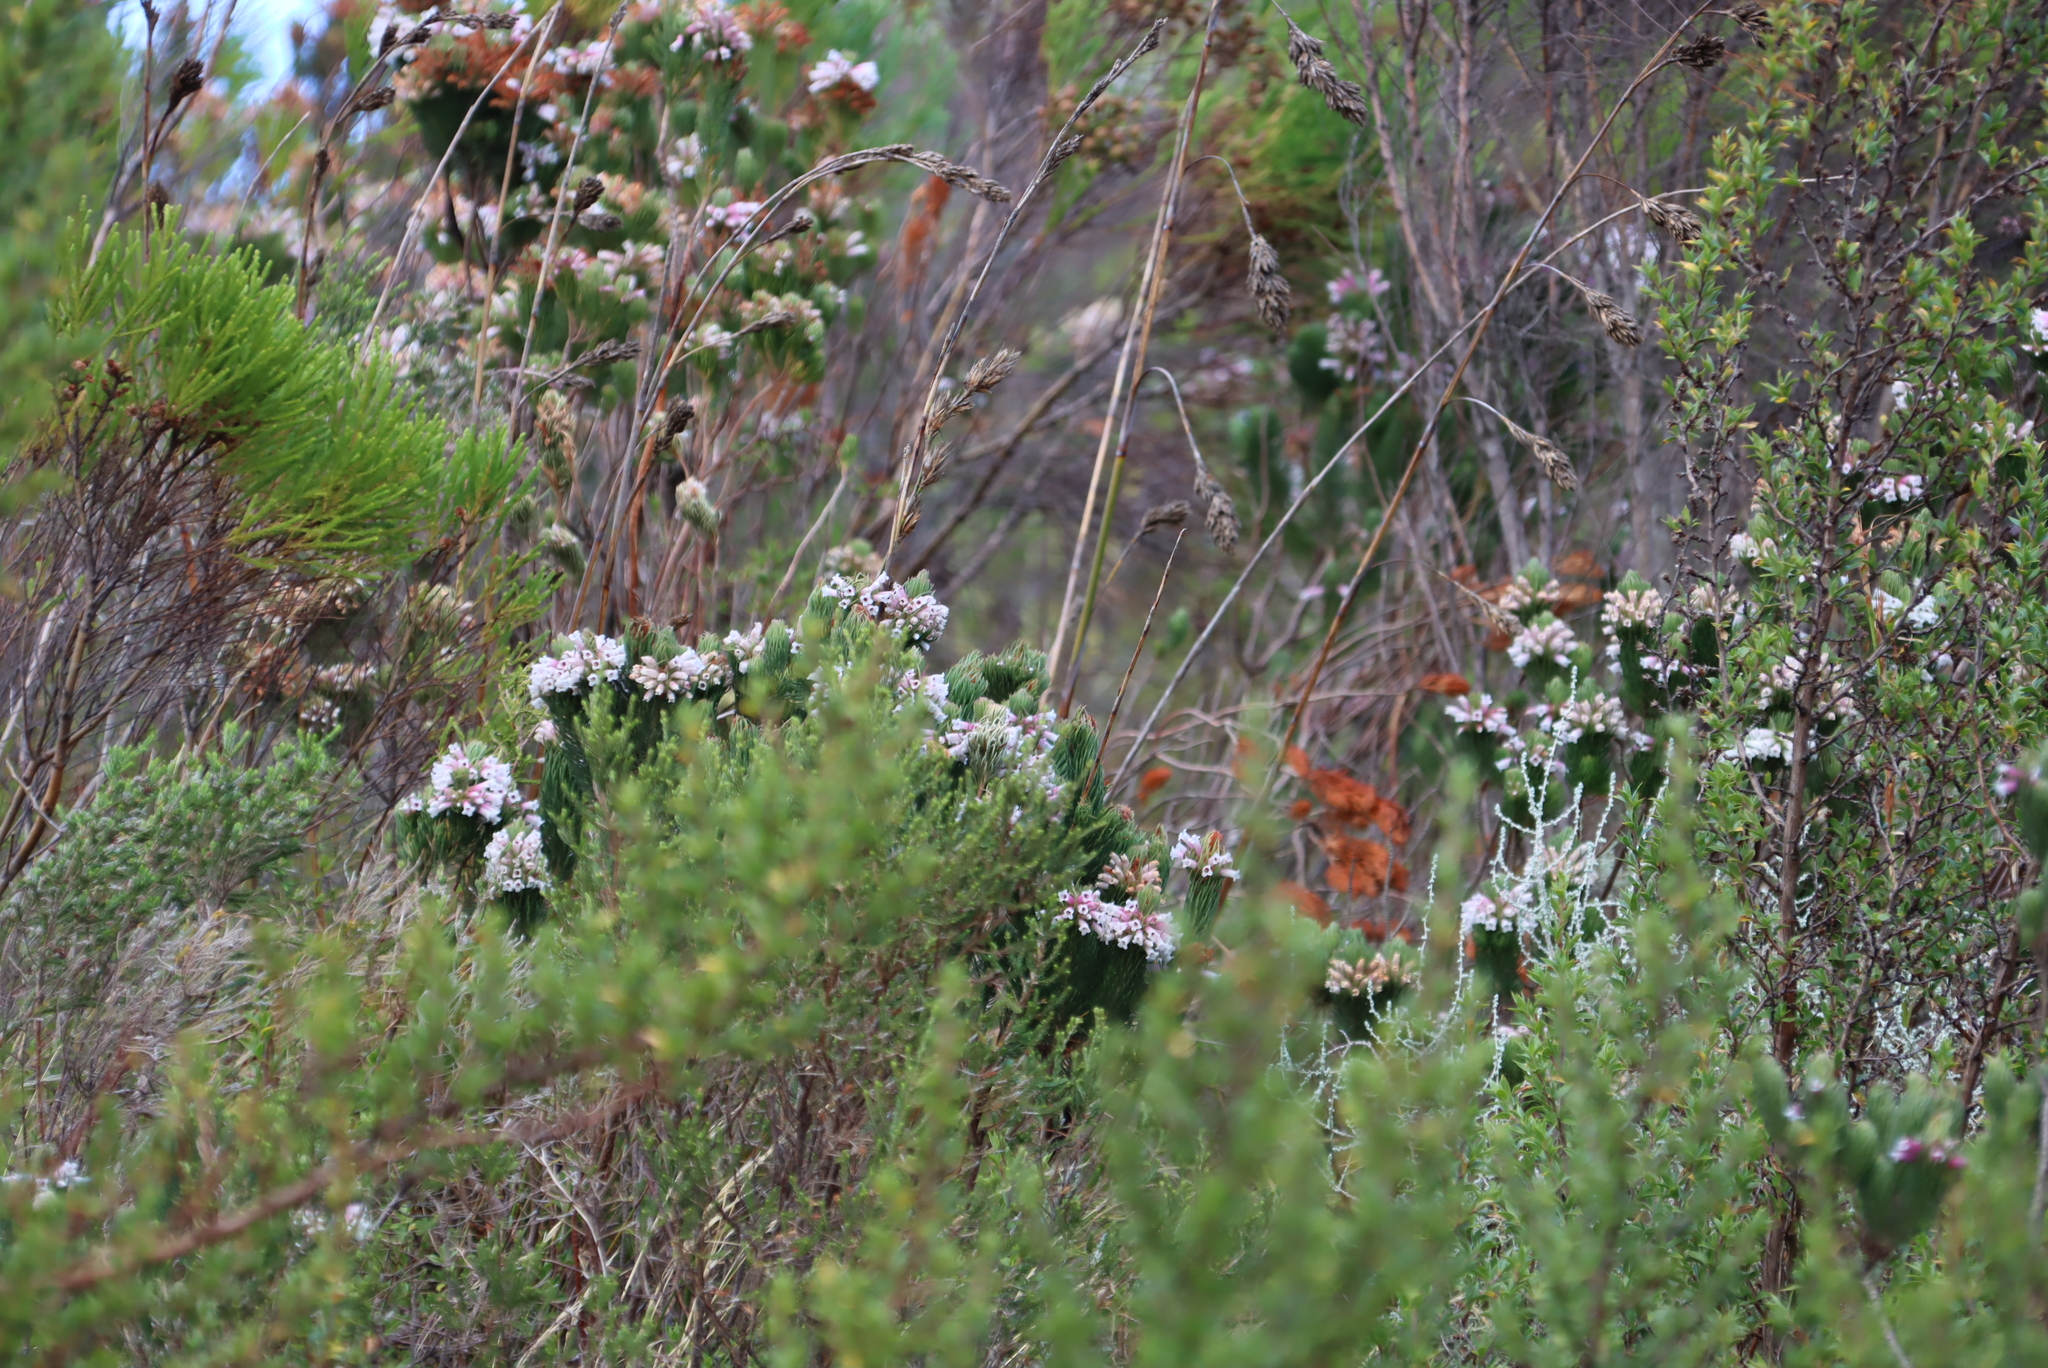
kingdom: Plantae
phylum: Tracheophyta
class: Magnoliopsida
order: Ericales
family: Ericaceae
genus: Erica
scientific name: Erica viscaria
